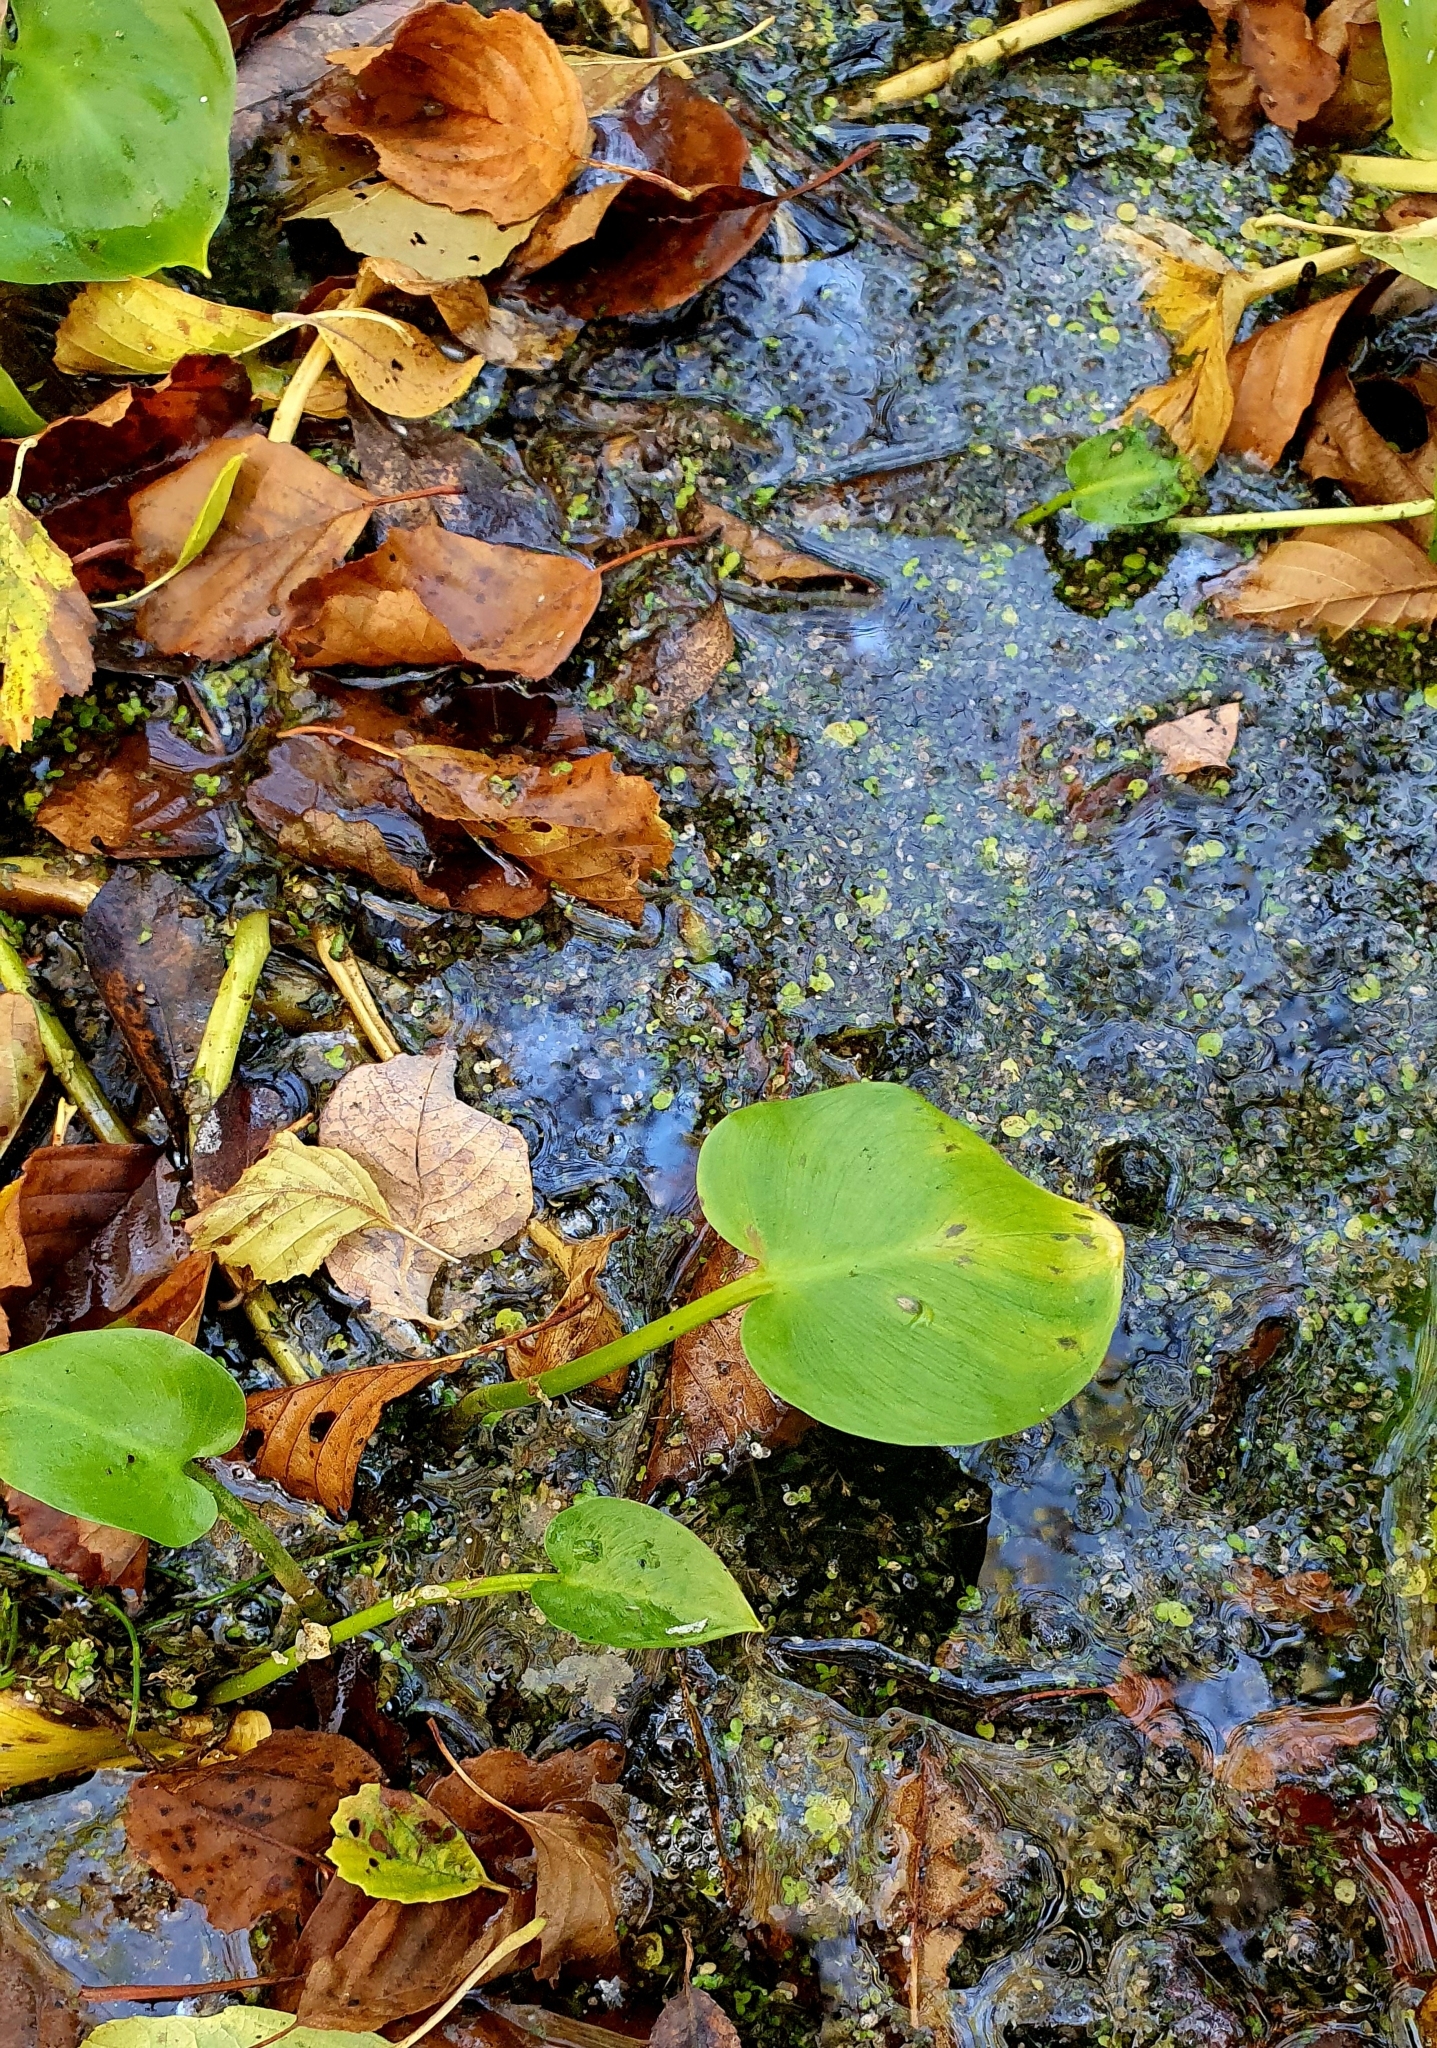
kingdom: Plantae
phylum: Tracheophyta
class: Liliopsida
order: Alismatales
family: Araceae
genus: Calla
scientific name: Calla palustris
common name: Bog arum
